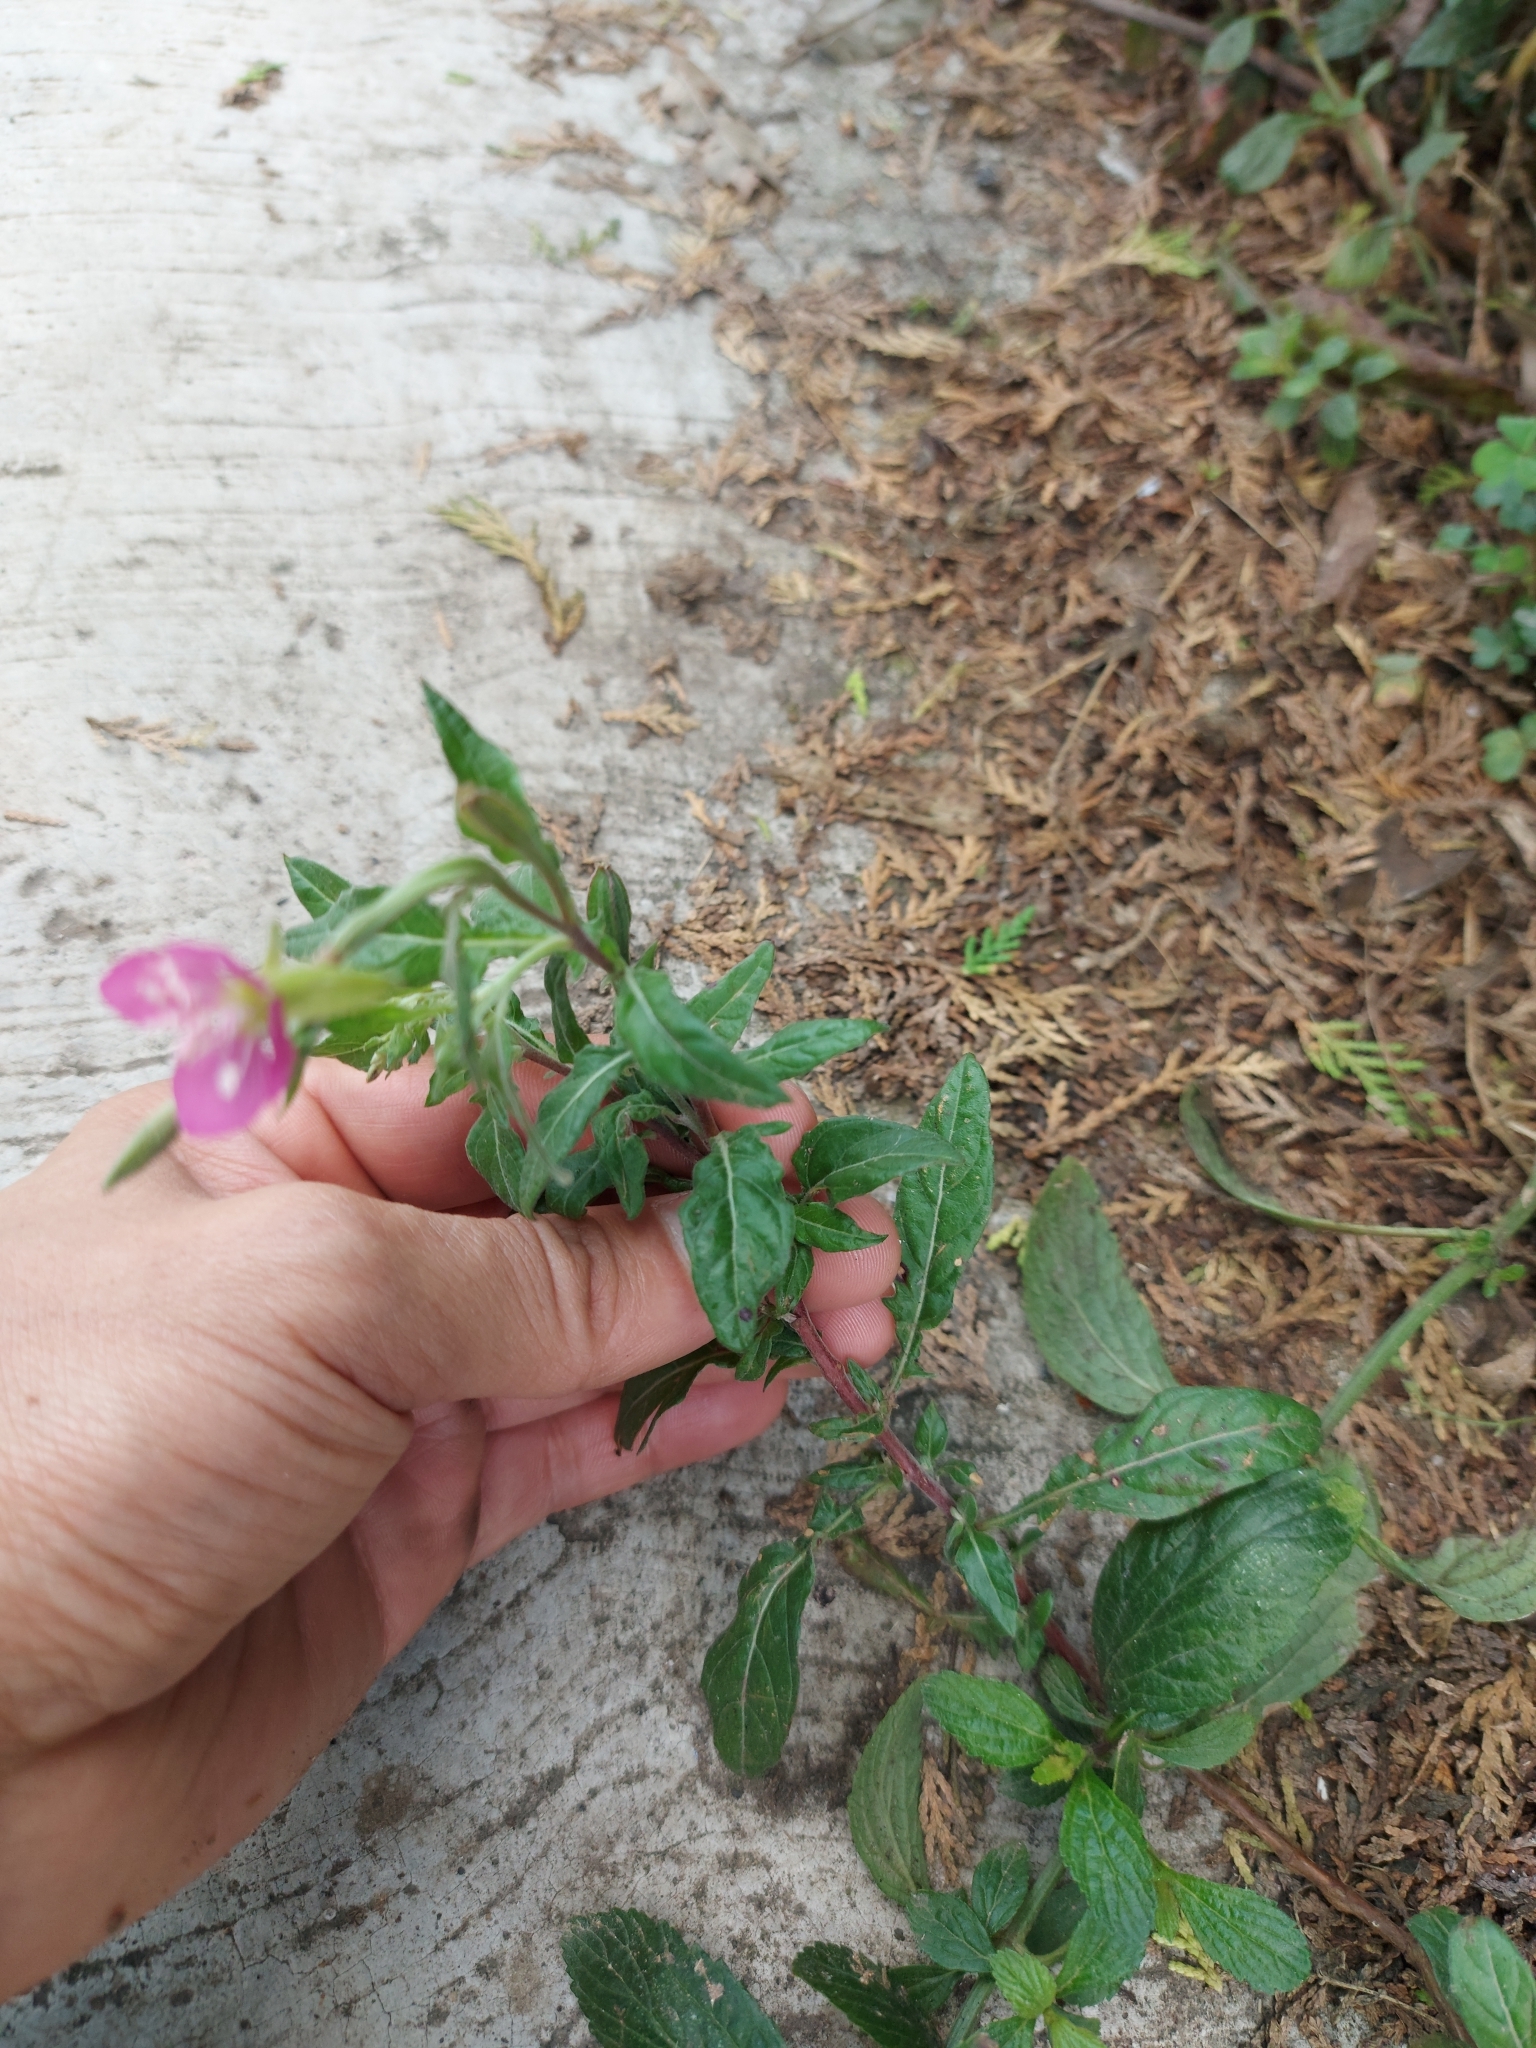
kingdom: Plantae
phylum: Tracheophyta
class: Magnoliopsida
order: Myrtales
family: Onagraceae
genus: Oenothera
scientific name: Oenothera rosea
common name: Rosy evening-primrose
